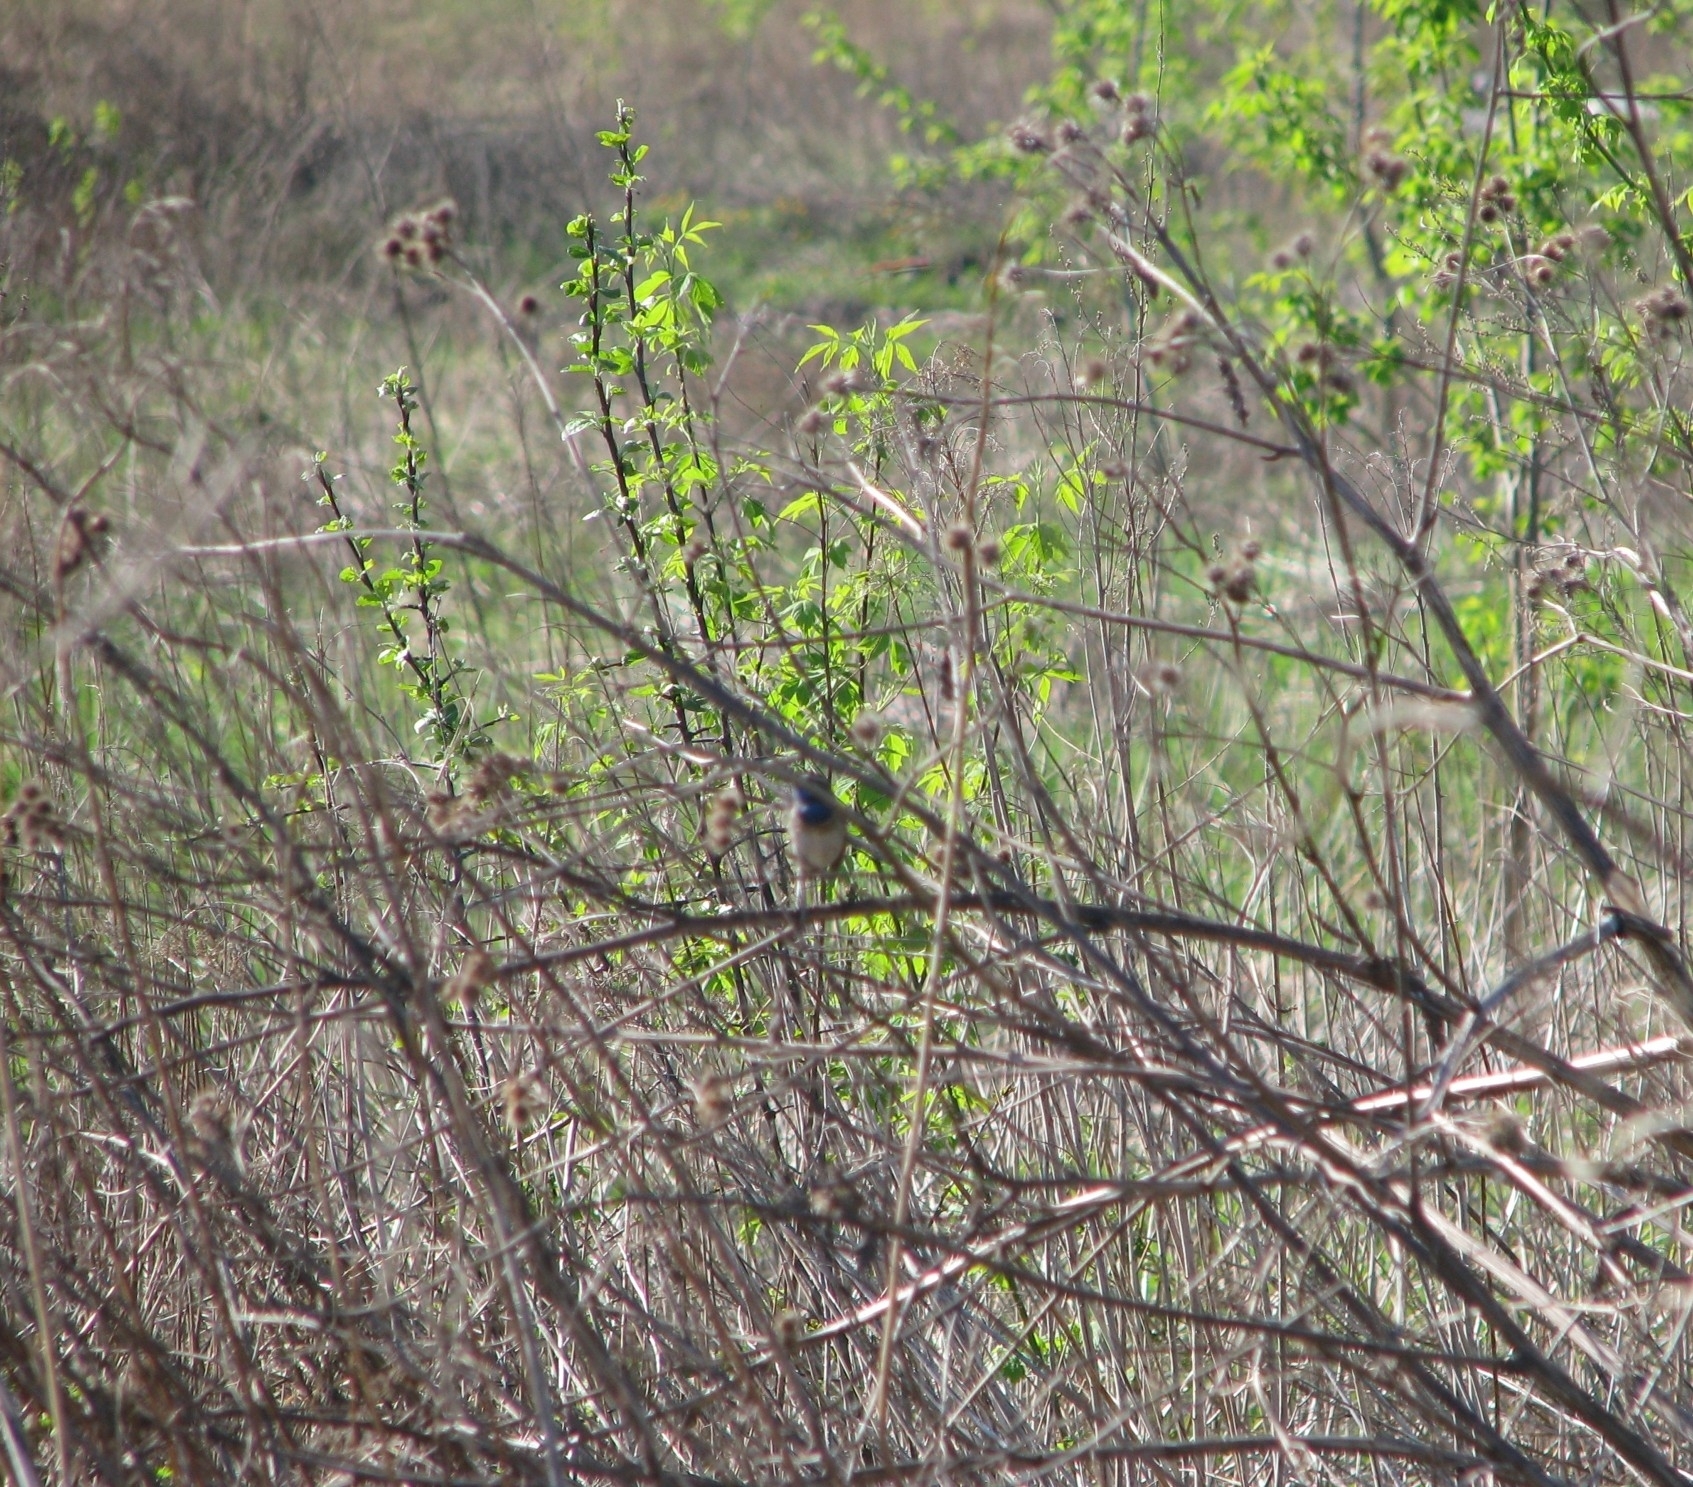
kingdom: Animalia
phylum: Chordata
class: Aves
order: Passeriformes
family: Muscicapidae
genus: Luscinia
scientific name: Luscinia svecica
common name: Bluethroat
